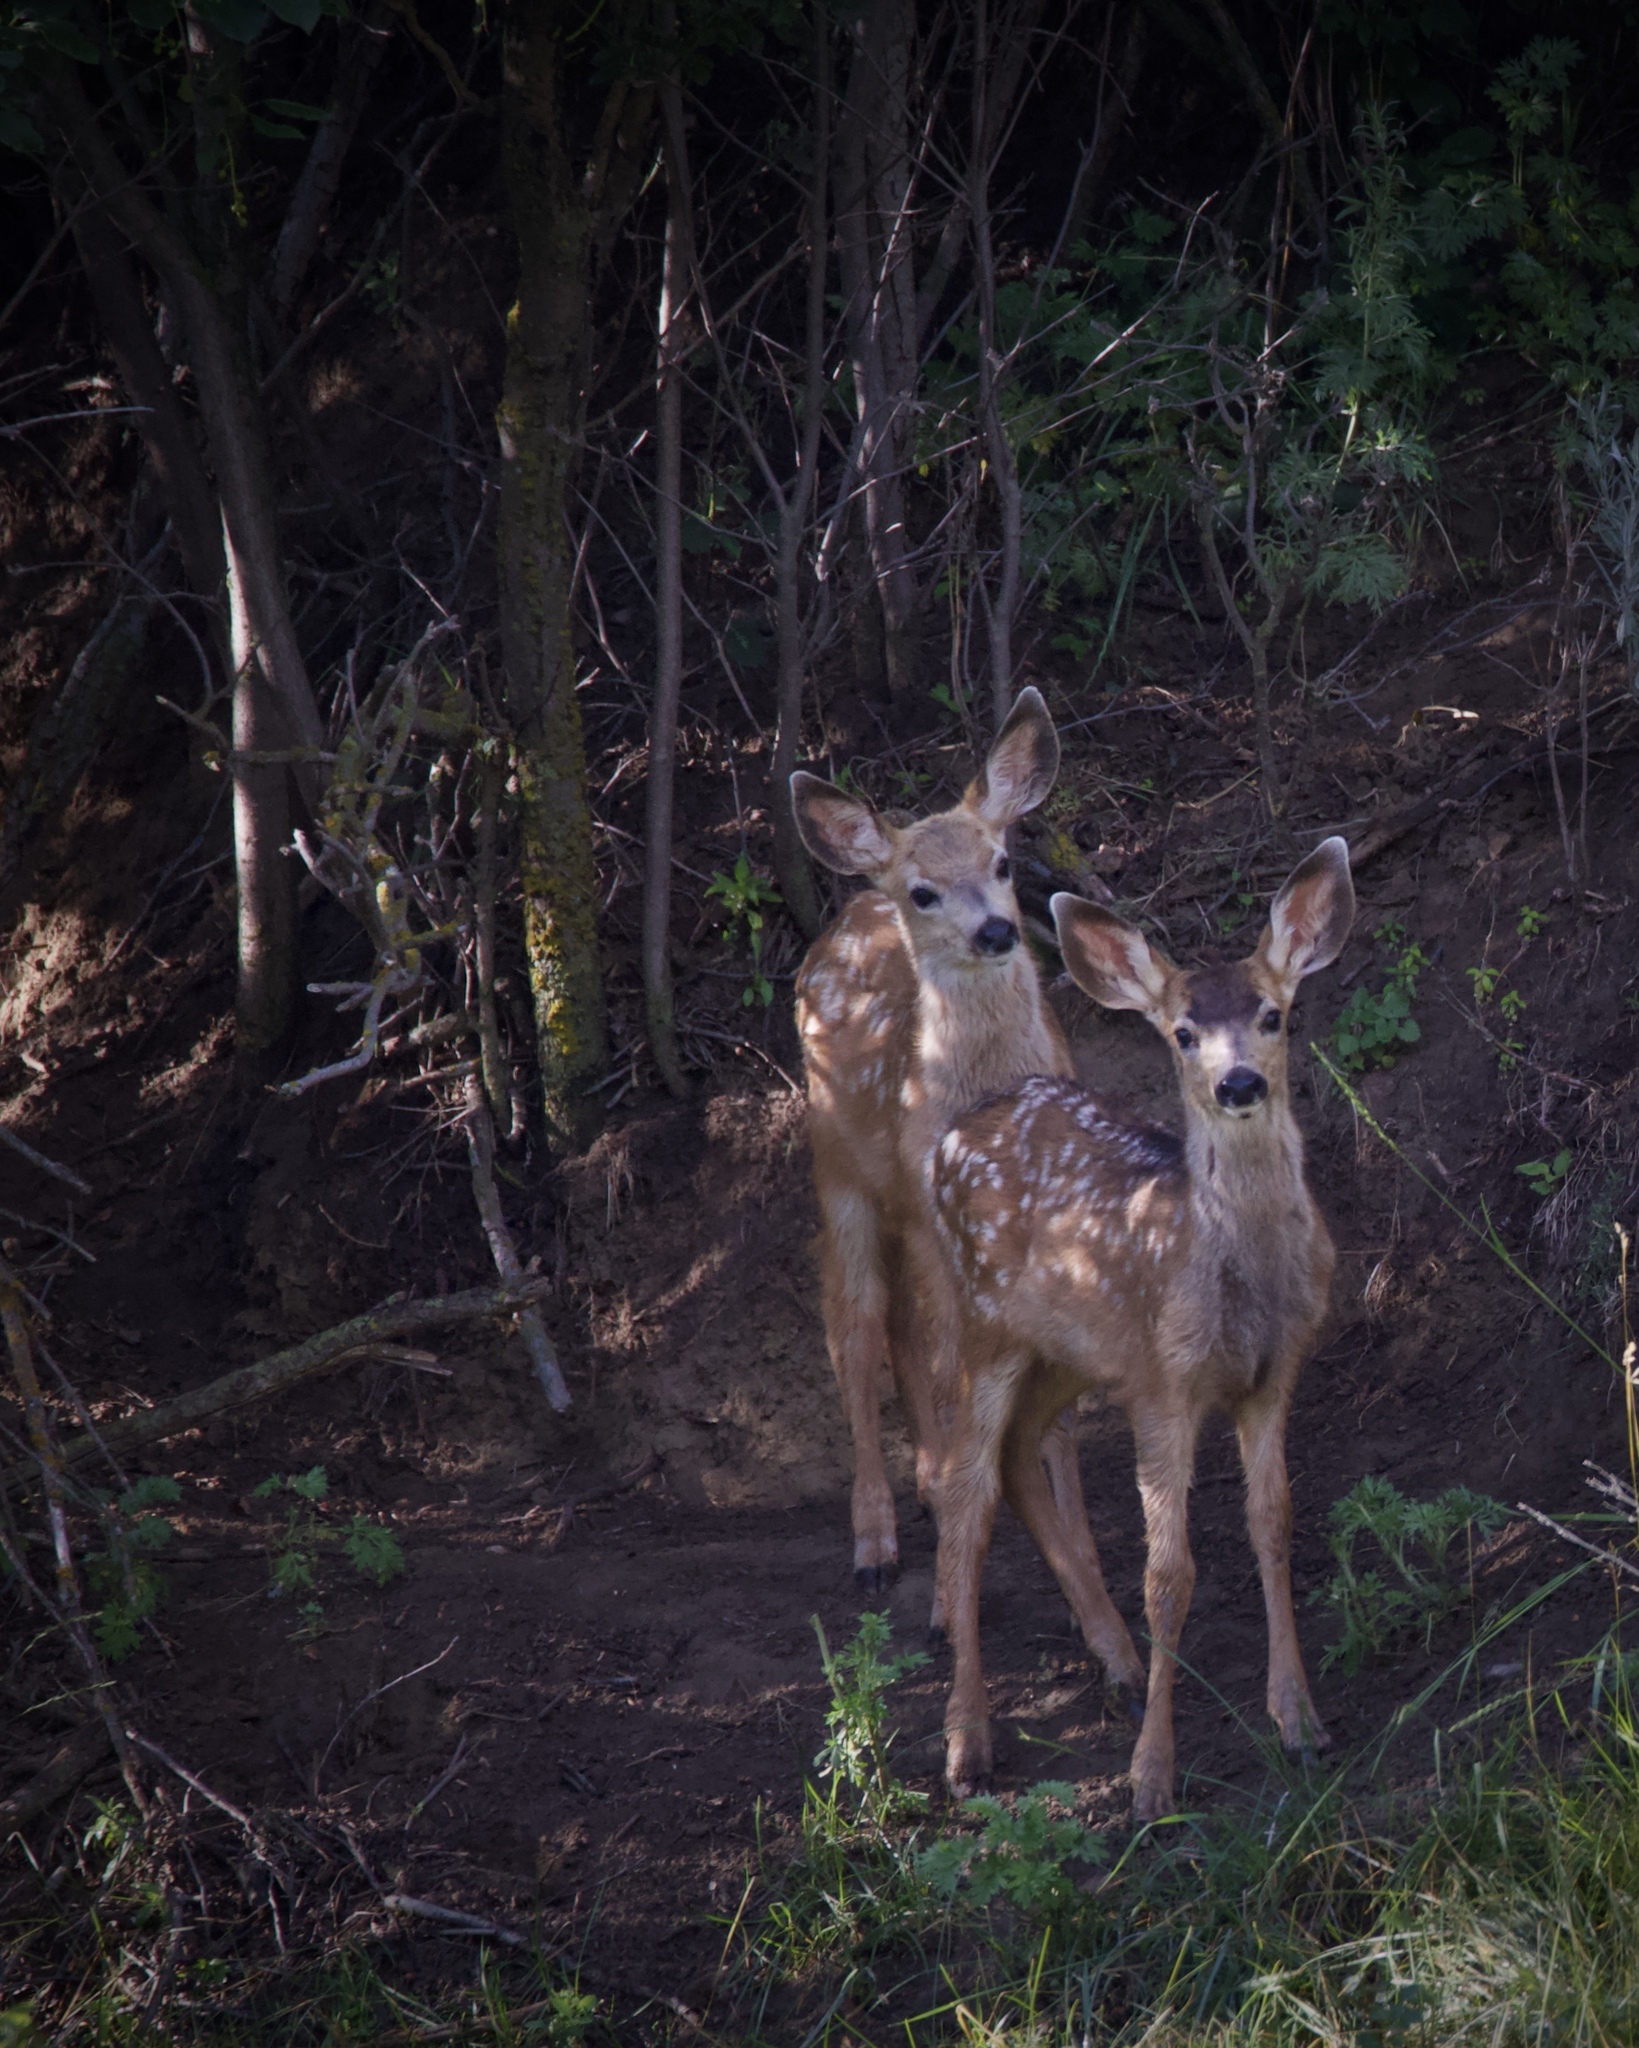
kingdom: Animalia
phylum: Chordata
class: Mammalia
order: Artiodactyla
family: Cervidae
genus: Odocoileus
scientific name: Odocoileus hemionus
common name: Mule deer
